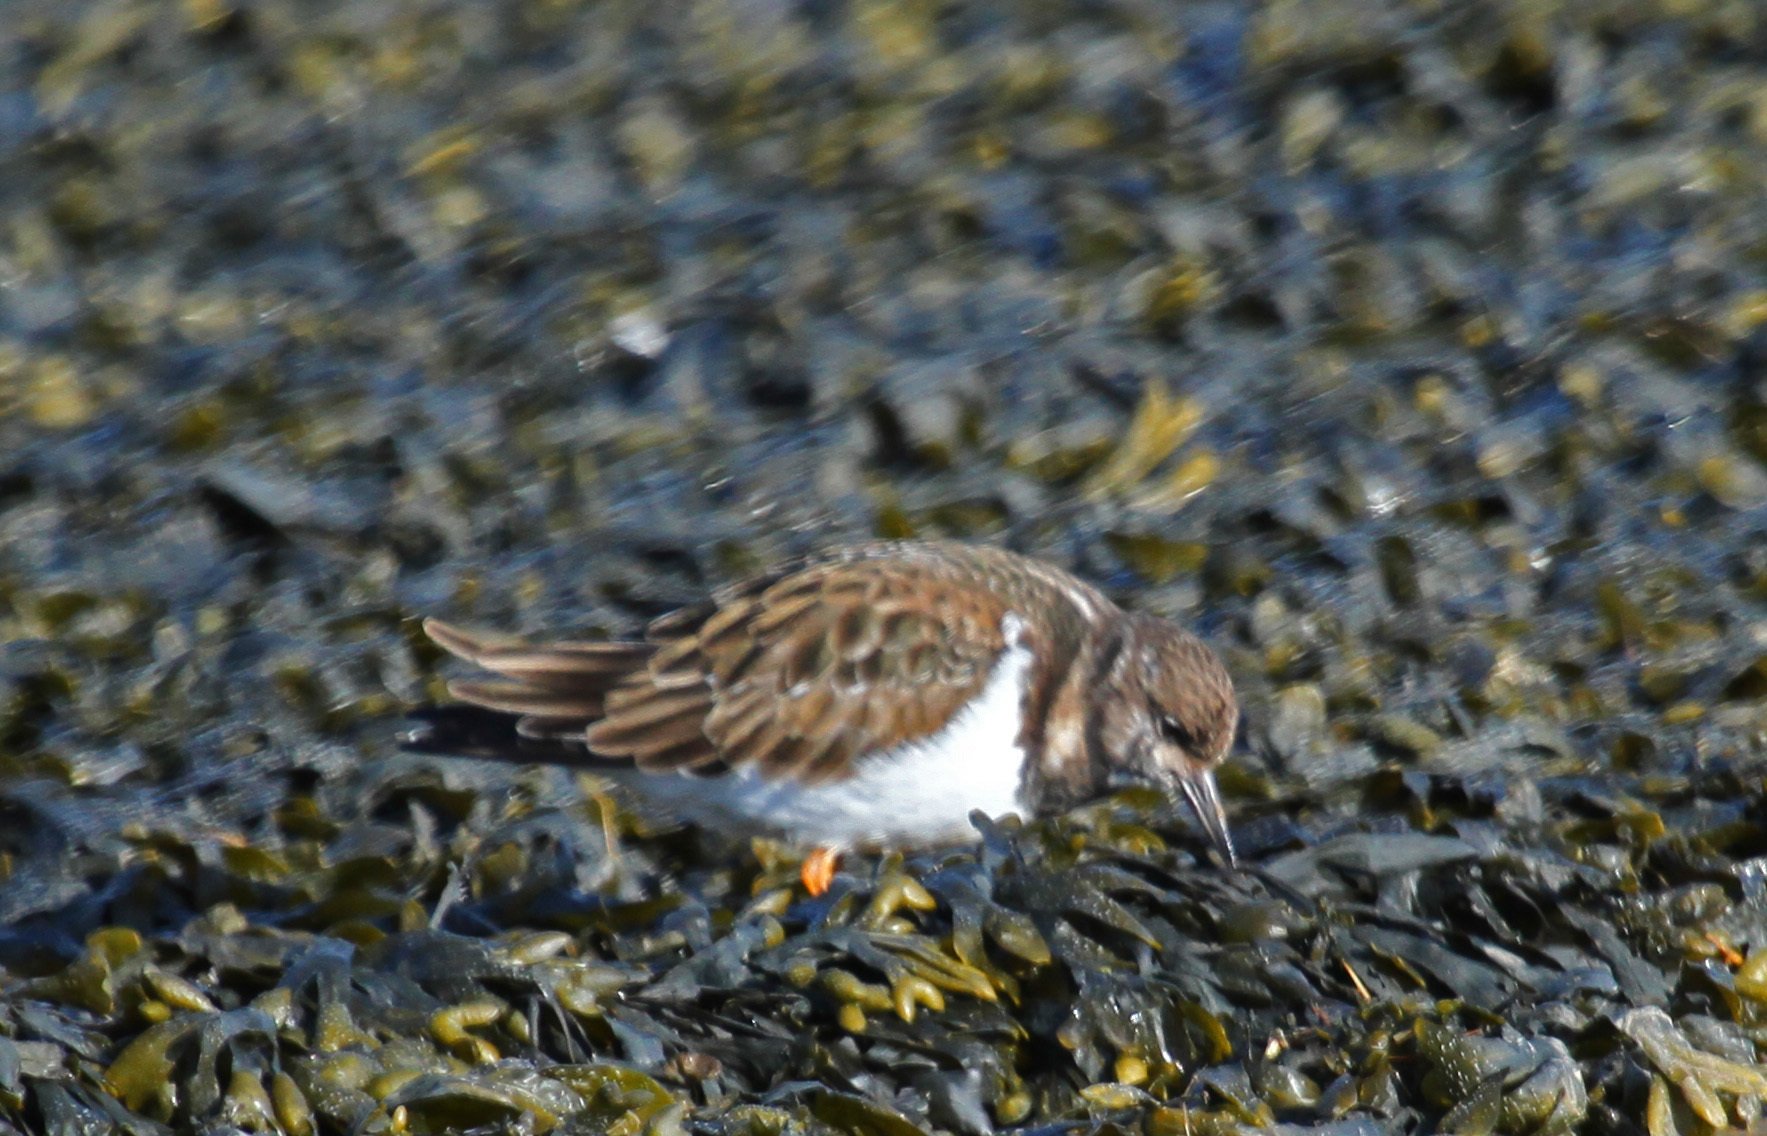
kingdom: Animalia
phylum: Chordata
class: Aves
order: Charadriiformes
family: Scolopacidae
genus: Arenaria
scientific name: Arenaria interpres
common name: Ruddy turnstone
